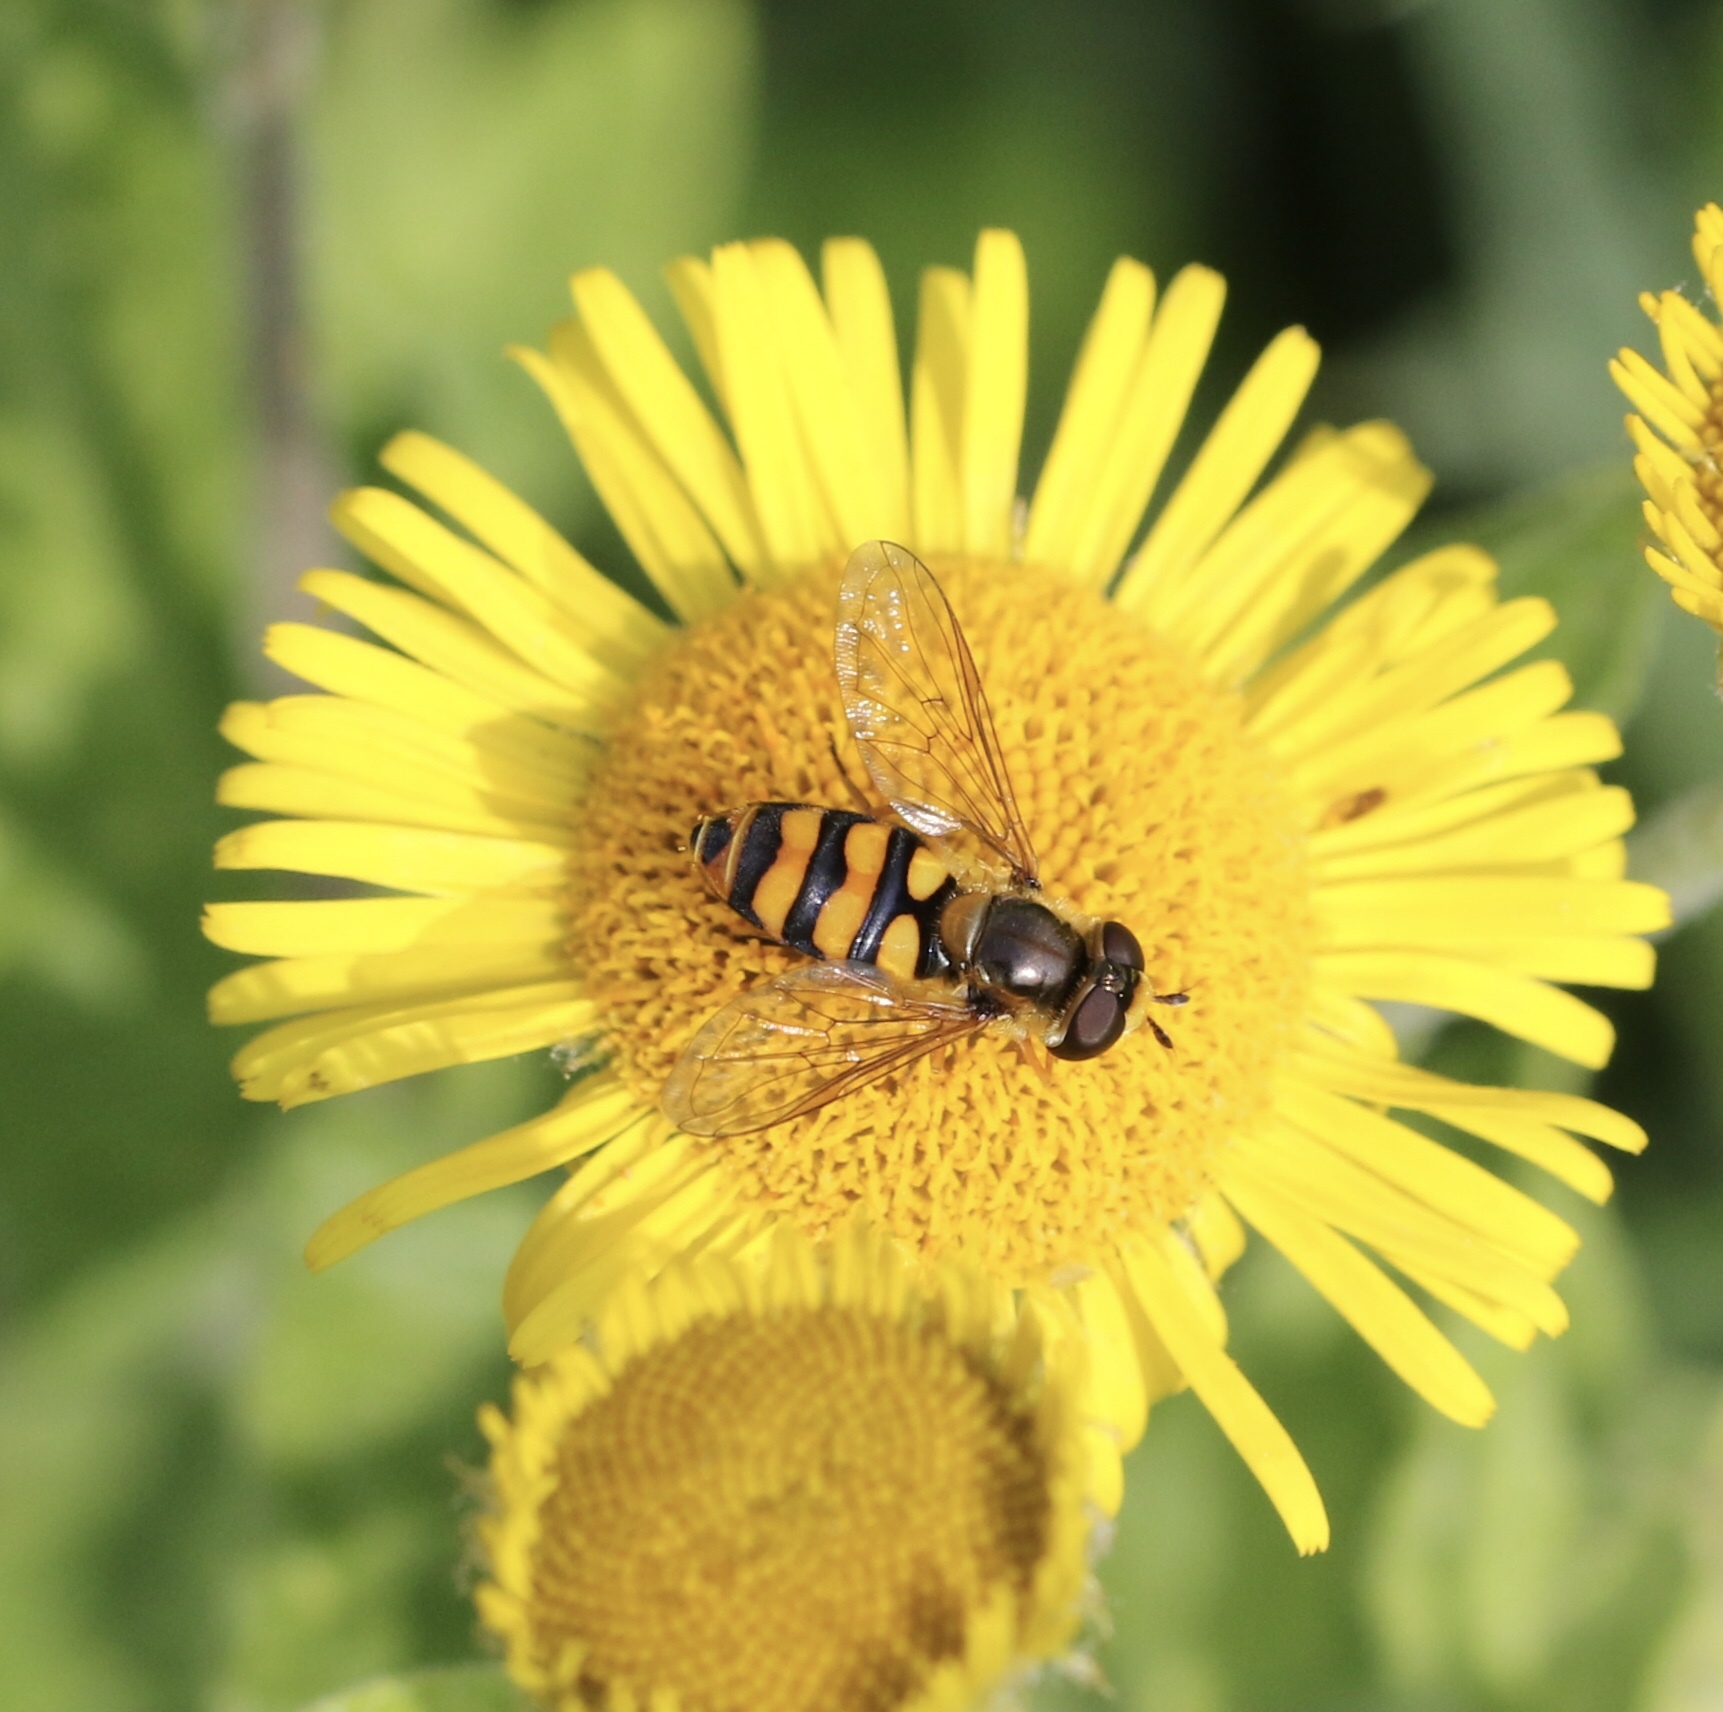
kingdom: Animalia
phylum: Arthropoda
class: Insecta
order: Diptera
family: Syrphidae
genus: Eupeodes
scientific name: Eupeodes latifasciatus
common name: Variable aphideater
